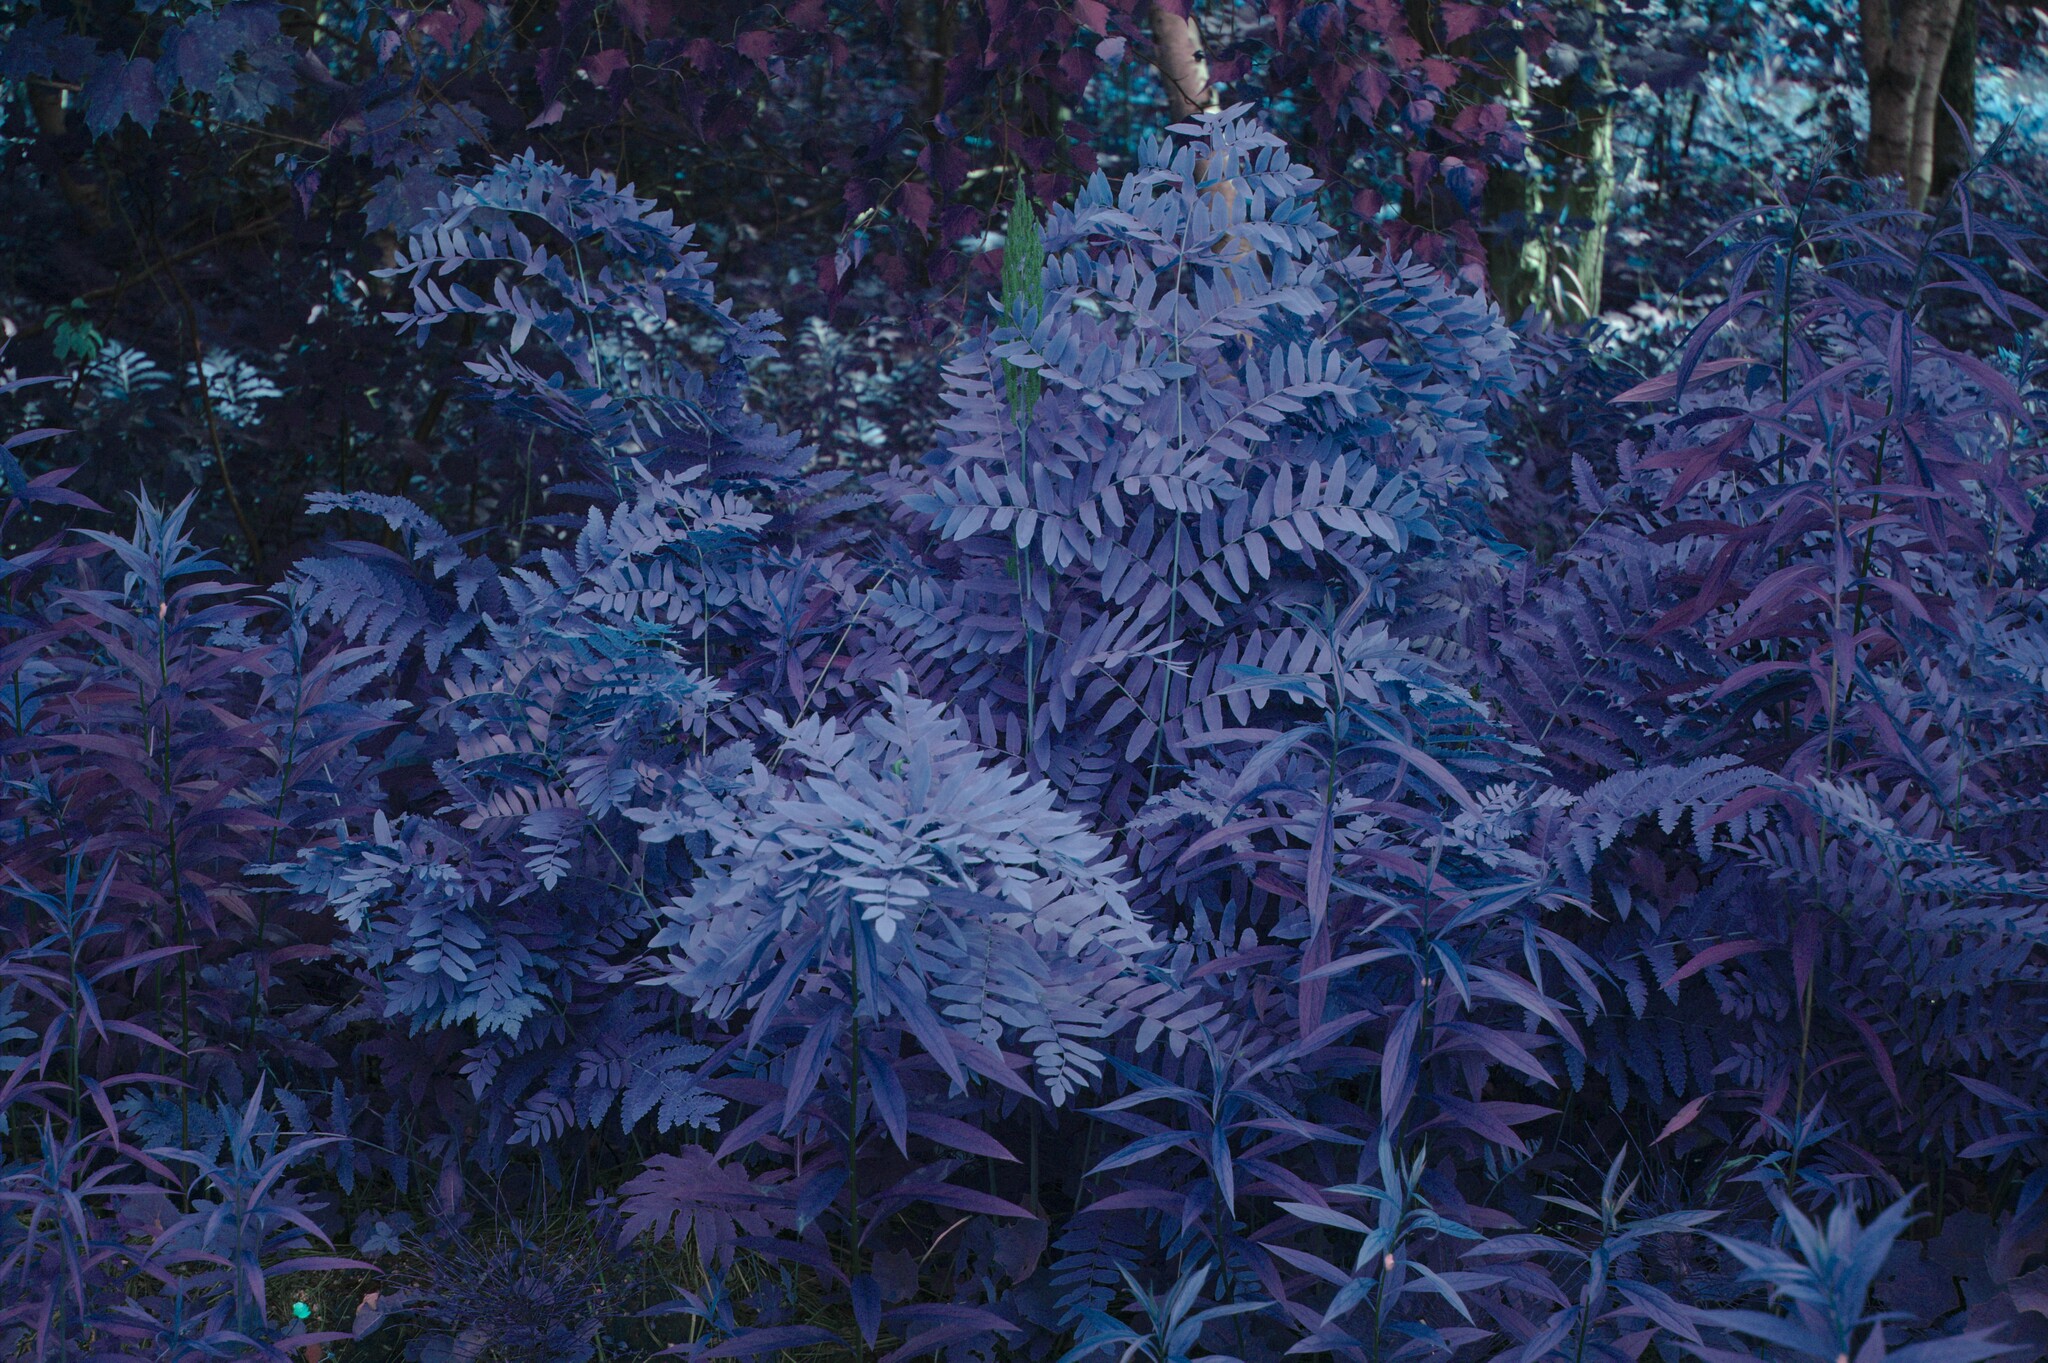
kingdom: Plantae
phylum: Tracheophyta
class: Polypodiopsida
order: Osmundales
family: Osmundaceae
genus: Osmunda
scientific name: Osmunda spectabilis
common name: American royal fern
